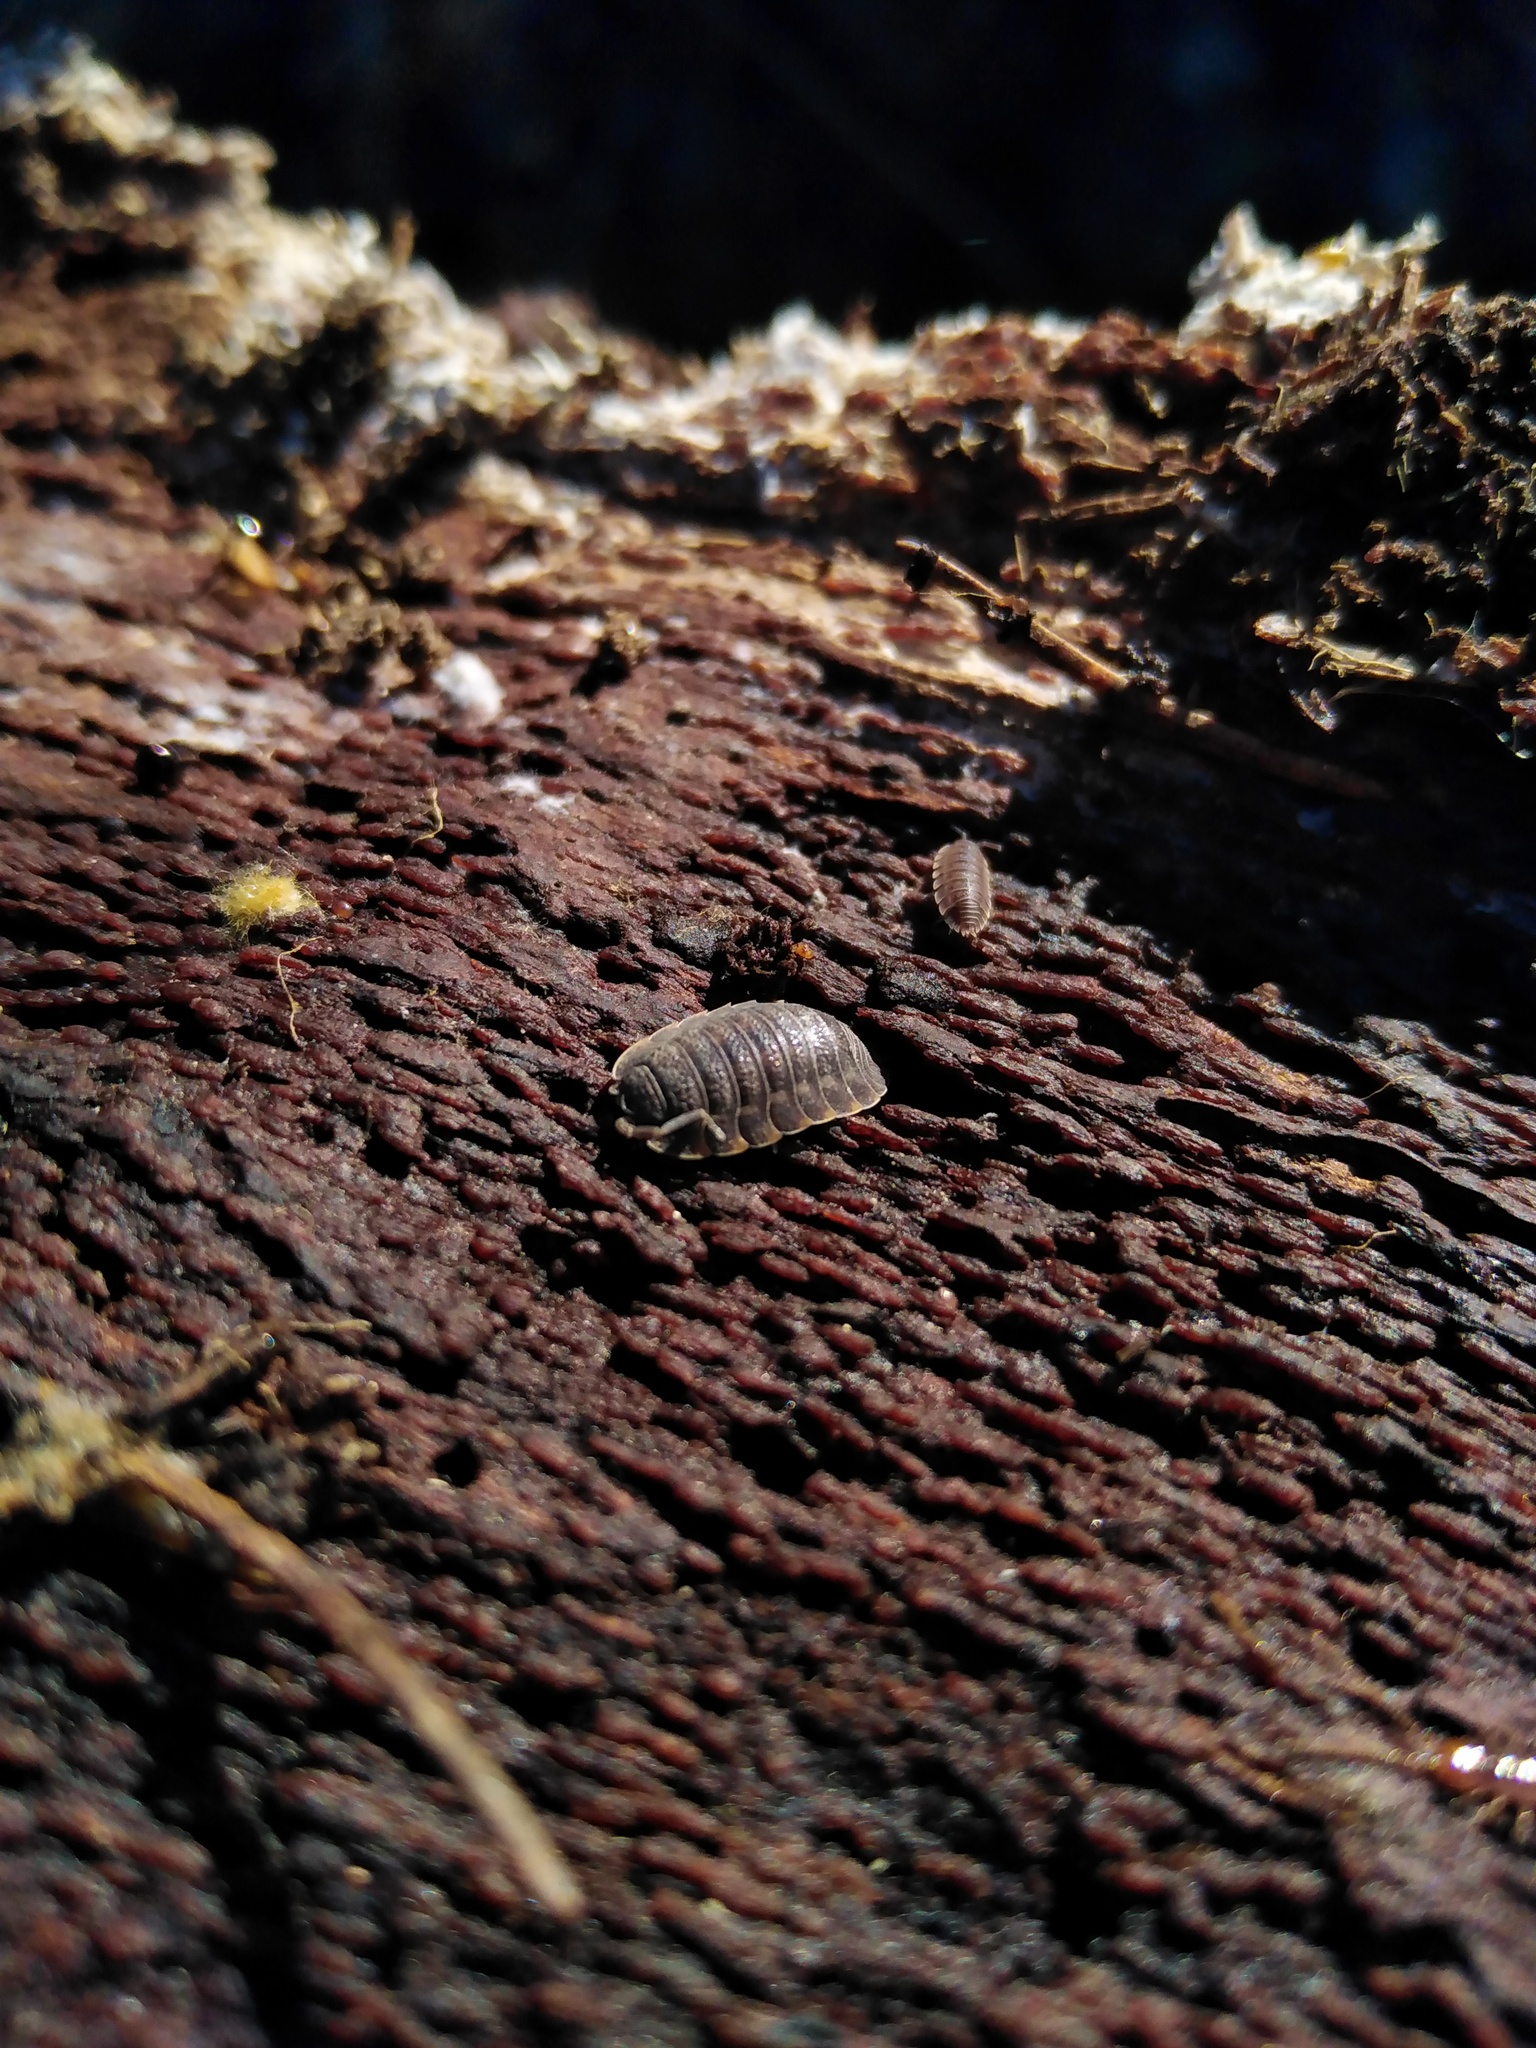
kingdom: Animalia
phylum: Arthropoda
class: Malacostraca
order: Isopoda
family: Trachelipodidae
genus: Trachelipus
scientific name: Trachelipus ratzeburgii
